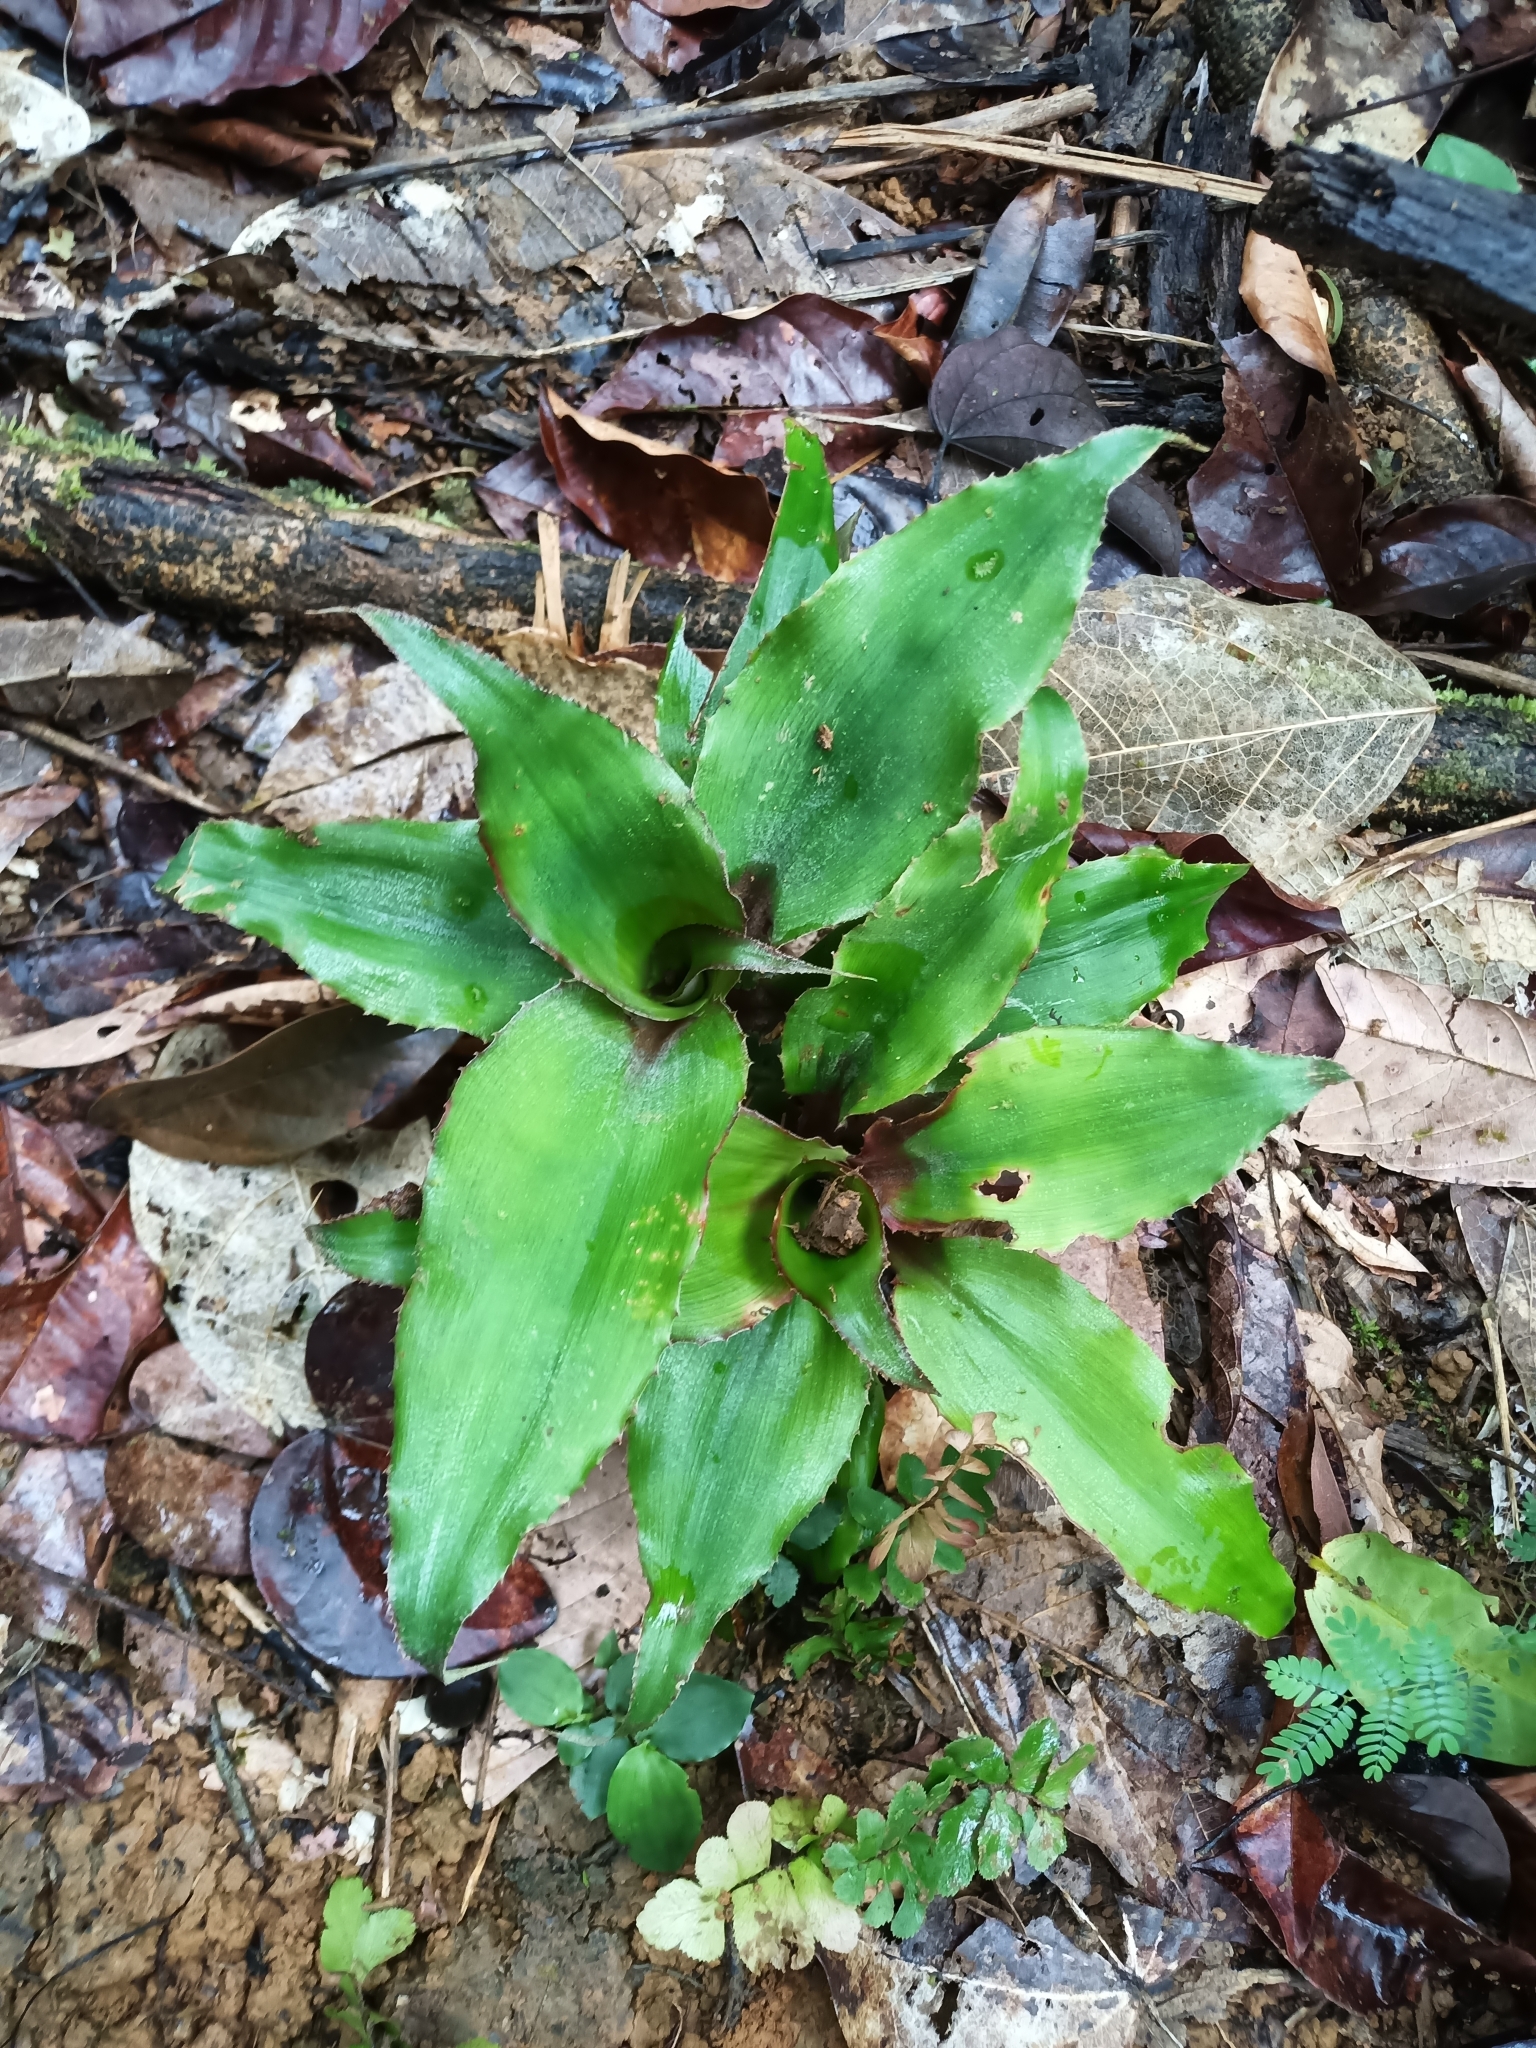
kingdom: Plantae
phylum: Tracheophyta
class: Liliopsida
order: Poales
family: Bromeliaceae
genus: Disteganthus
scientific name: Disteganthus
